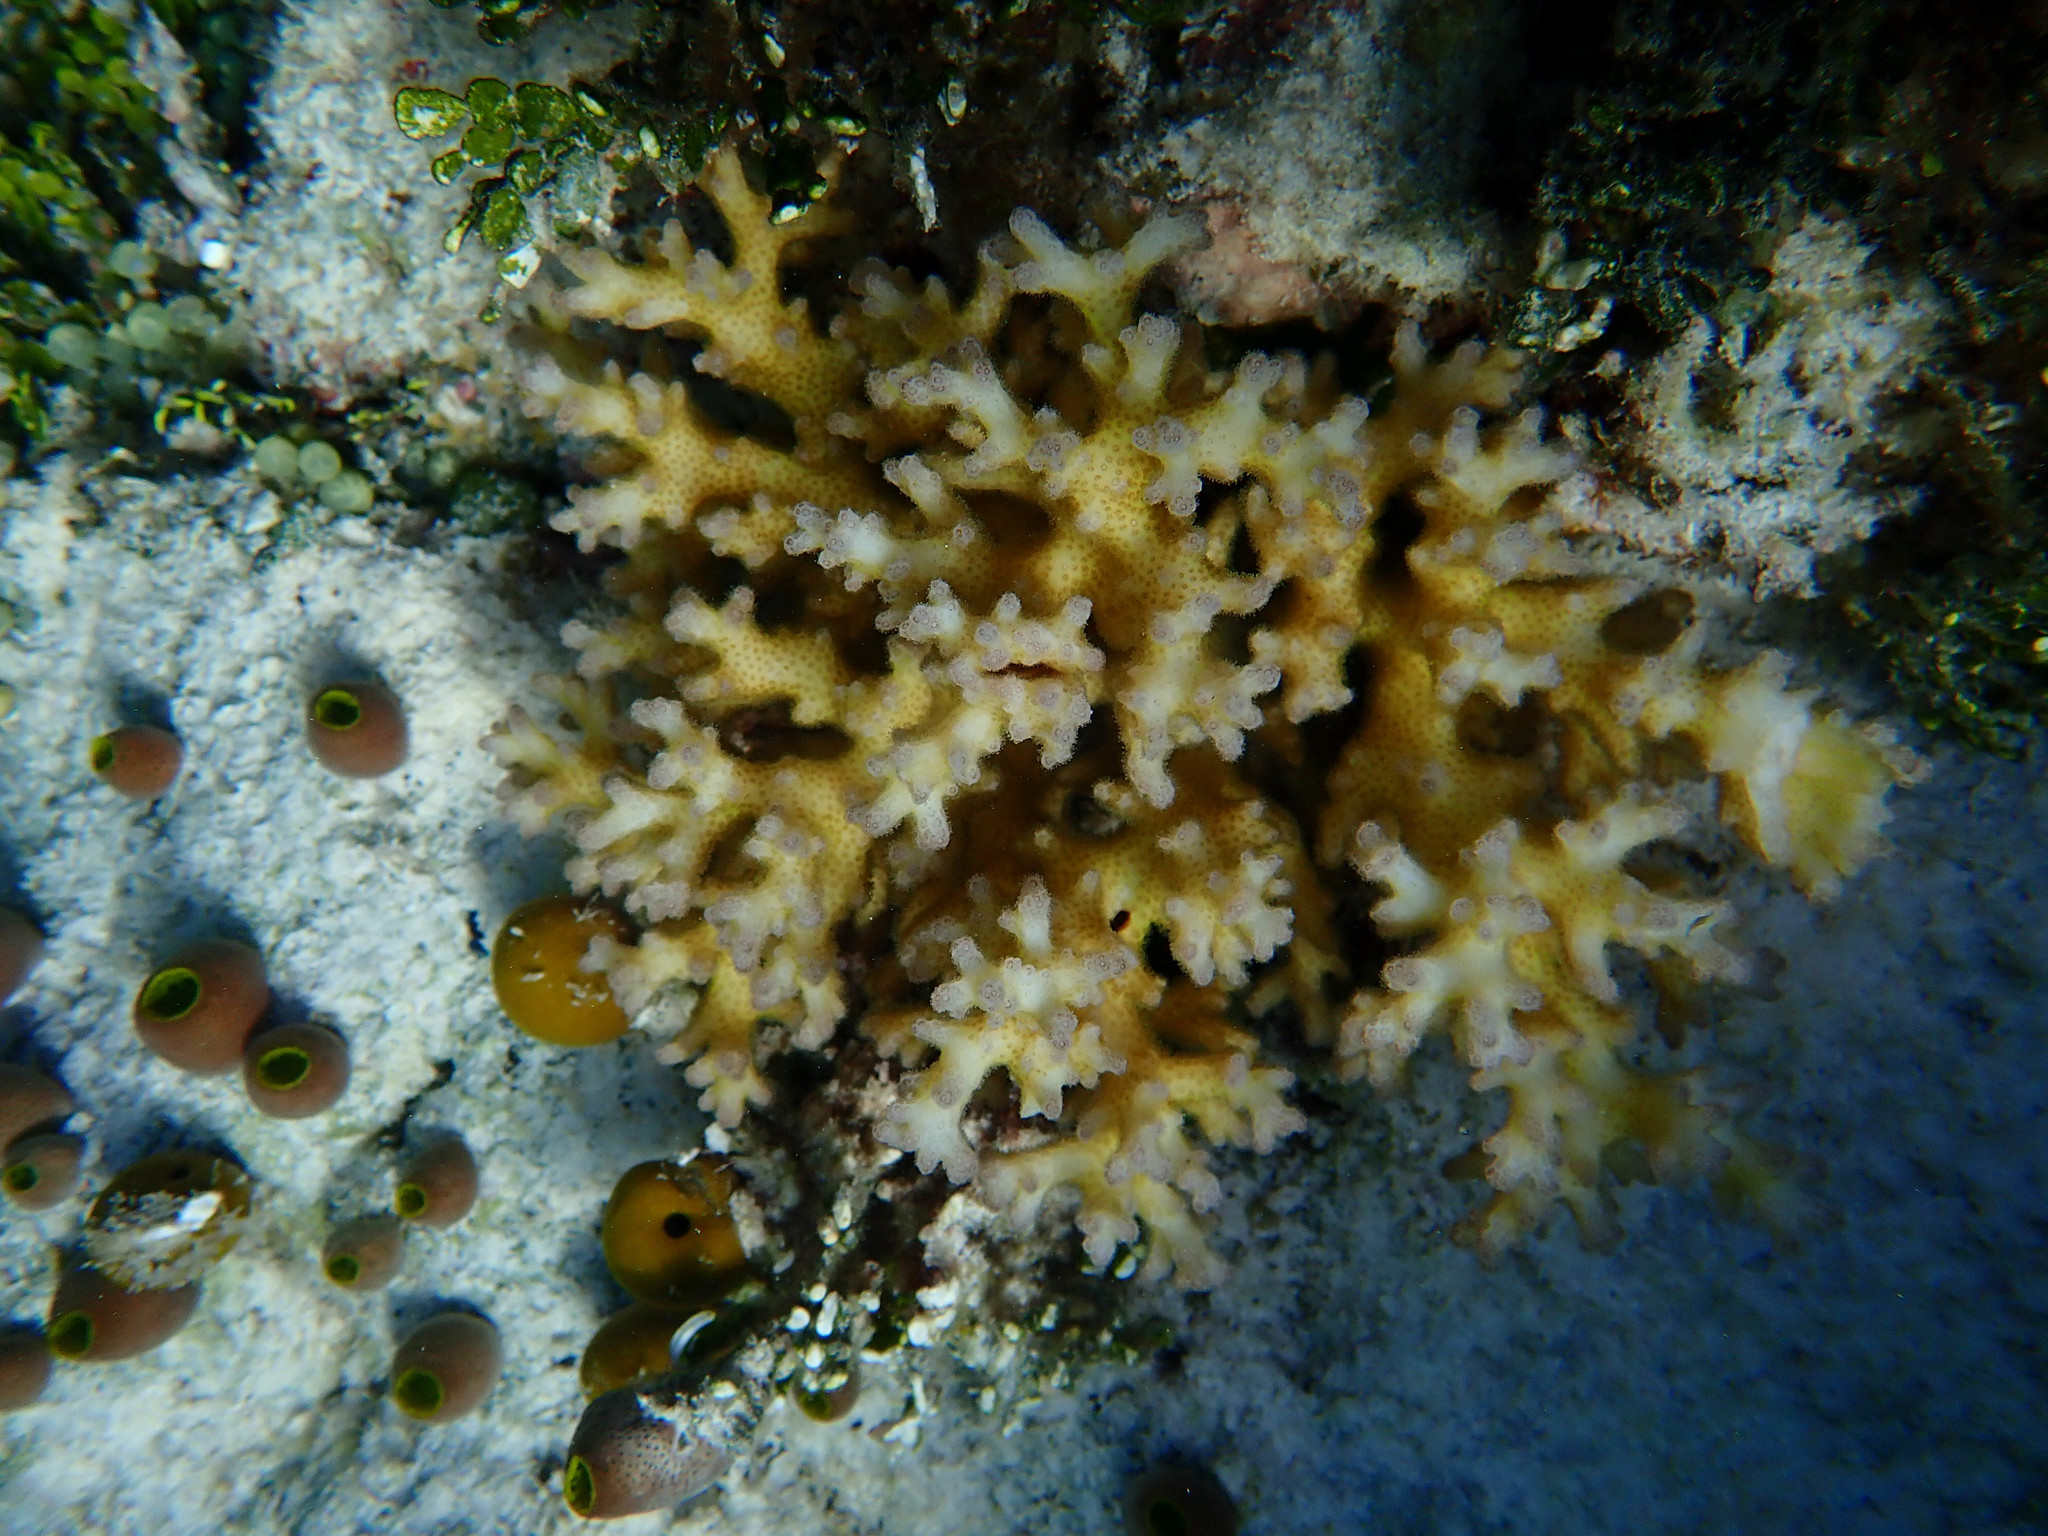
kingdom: Animalia
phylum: Chordata
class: Ascidiacea
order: Aplousobranchia
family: Didemnidae
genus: Didemnum
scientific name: Didemnum molle
